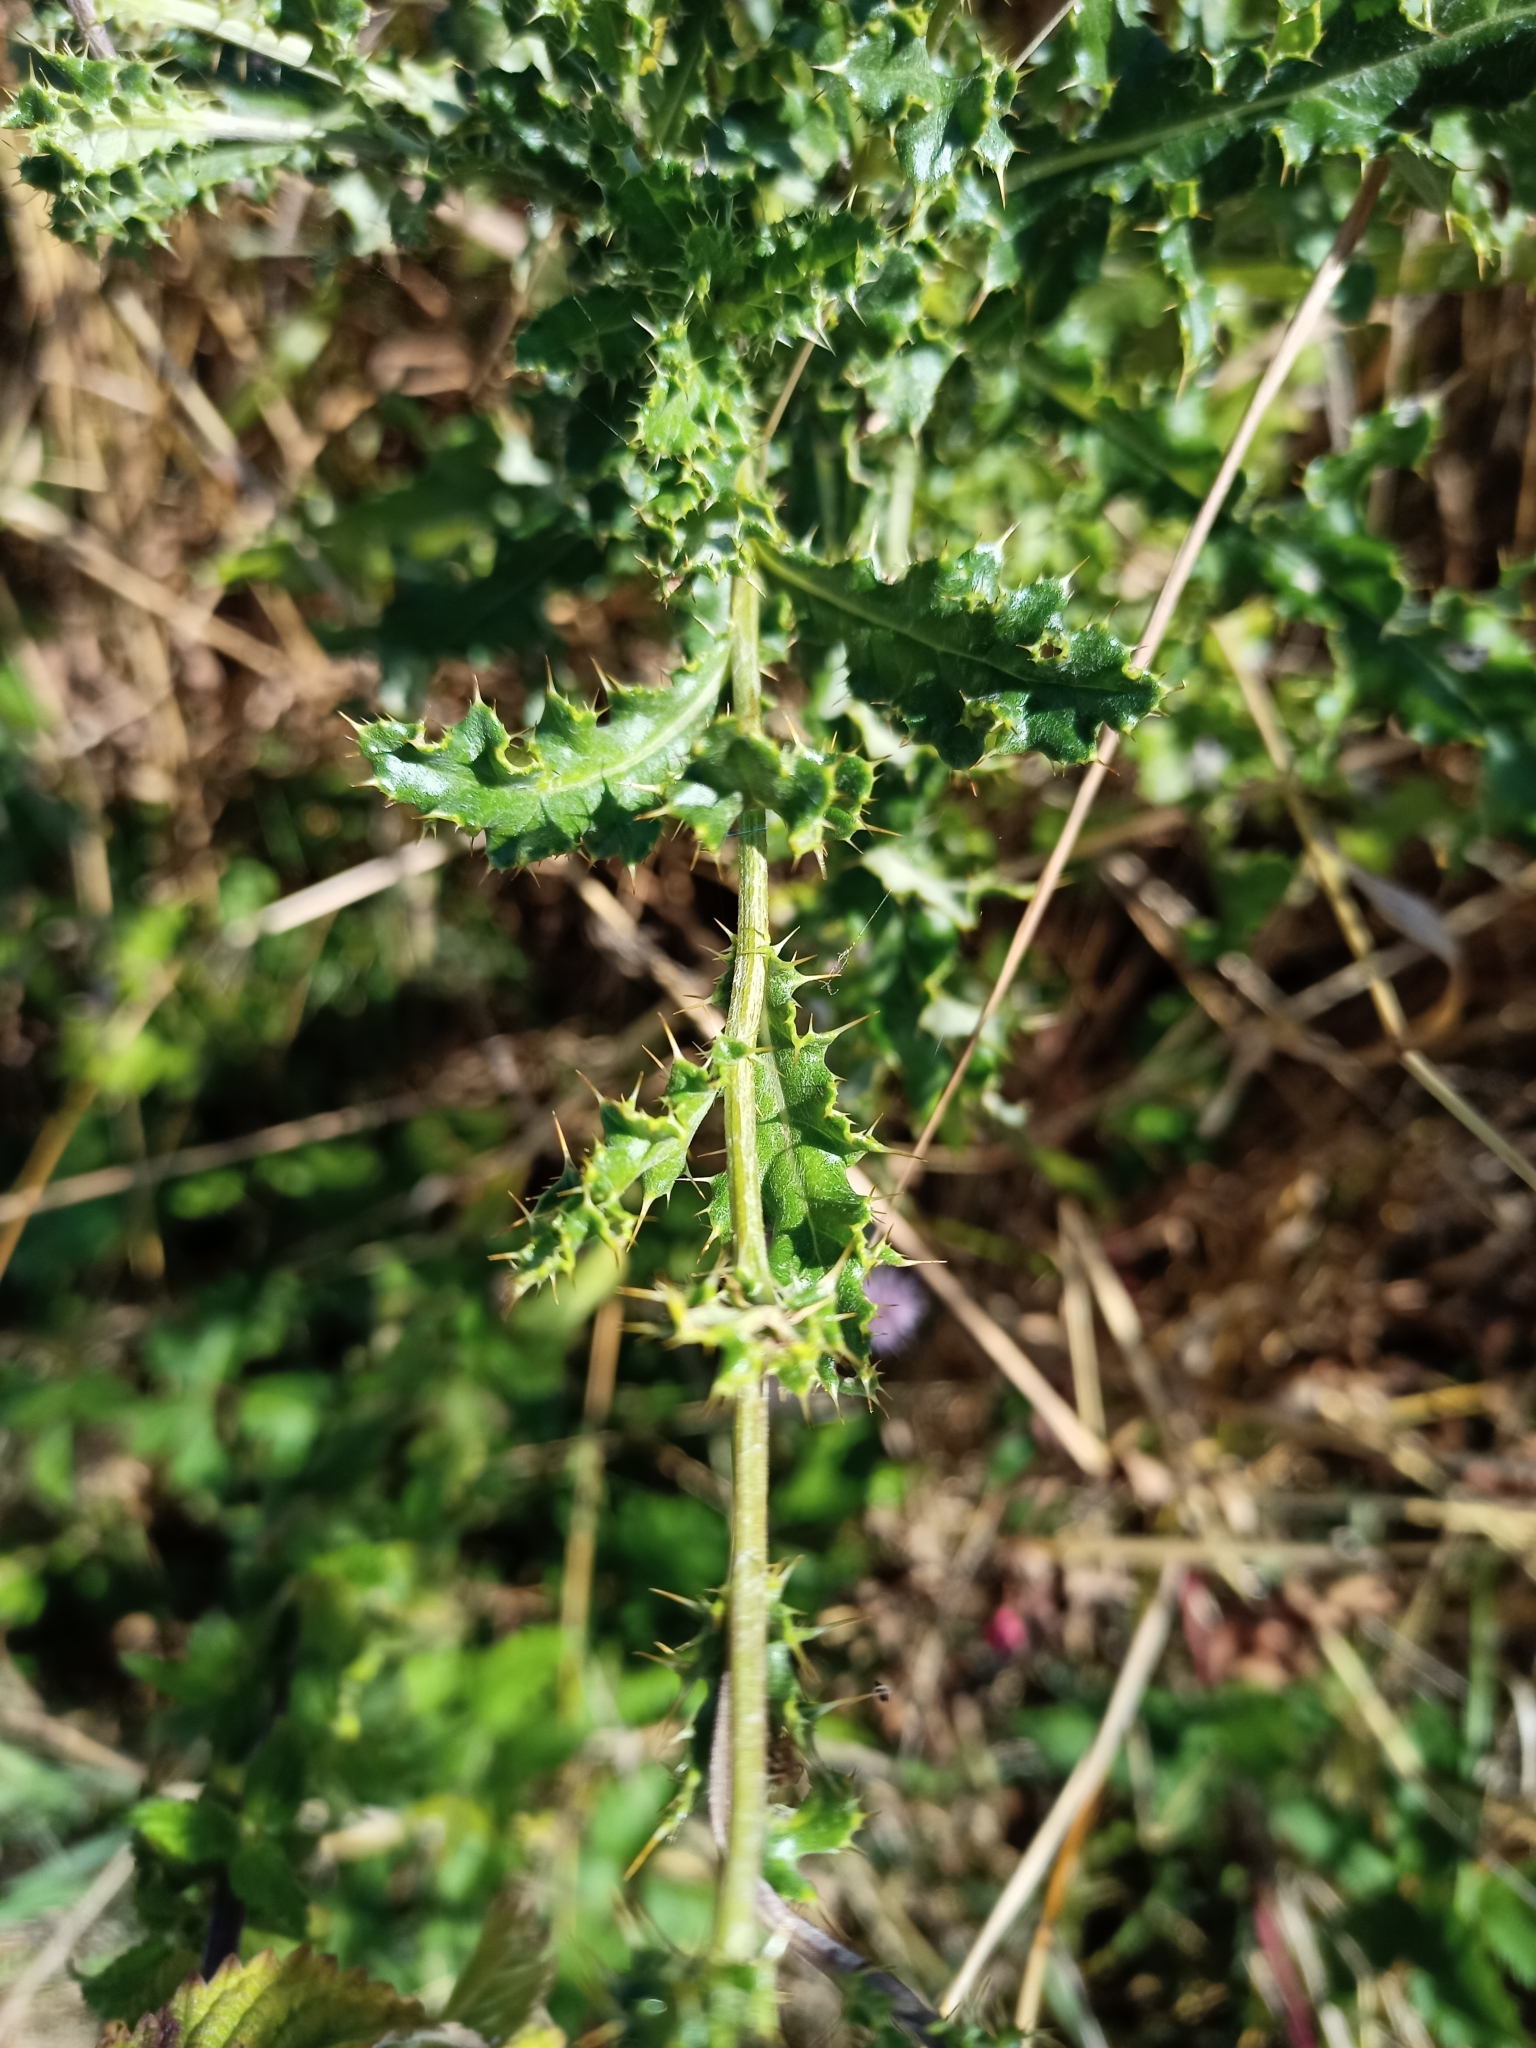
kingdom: Plantae
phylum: Tracheophyta
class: Magnoliopsida
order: Asterales
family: Asteraceae
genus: Cirsium
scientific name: Cirsium arvense
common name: Creeping thistle
